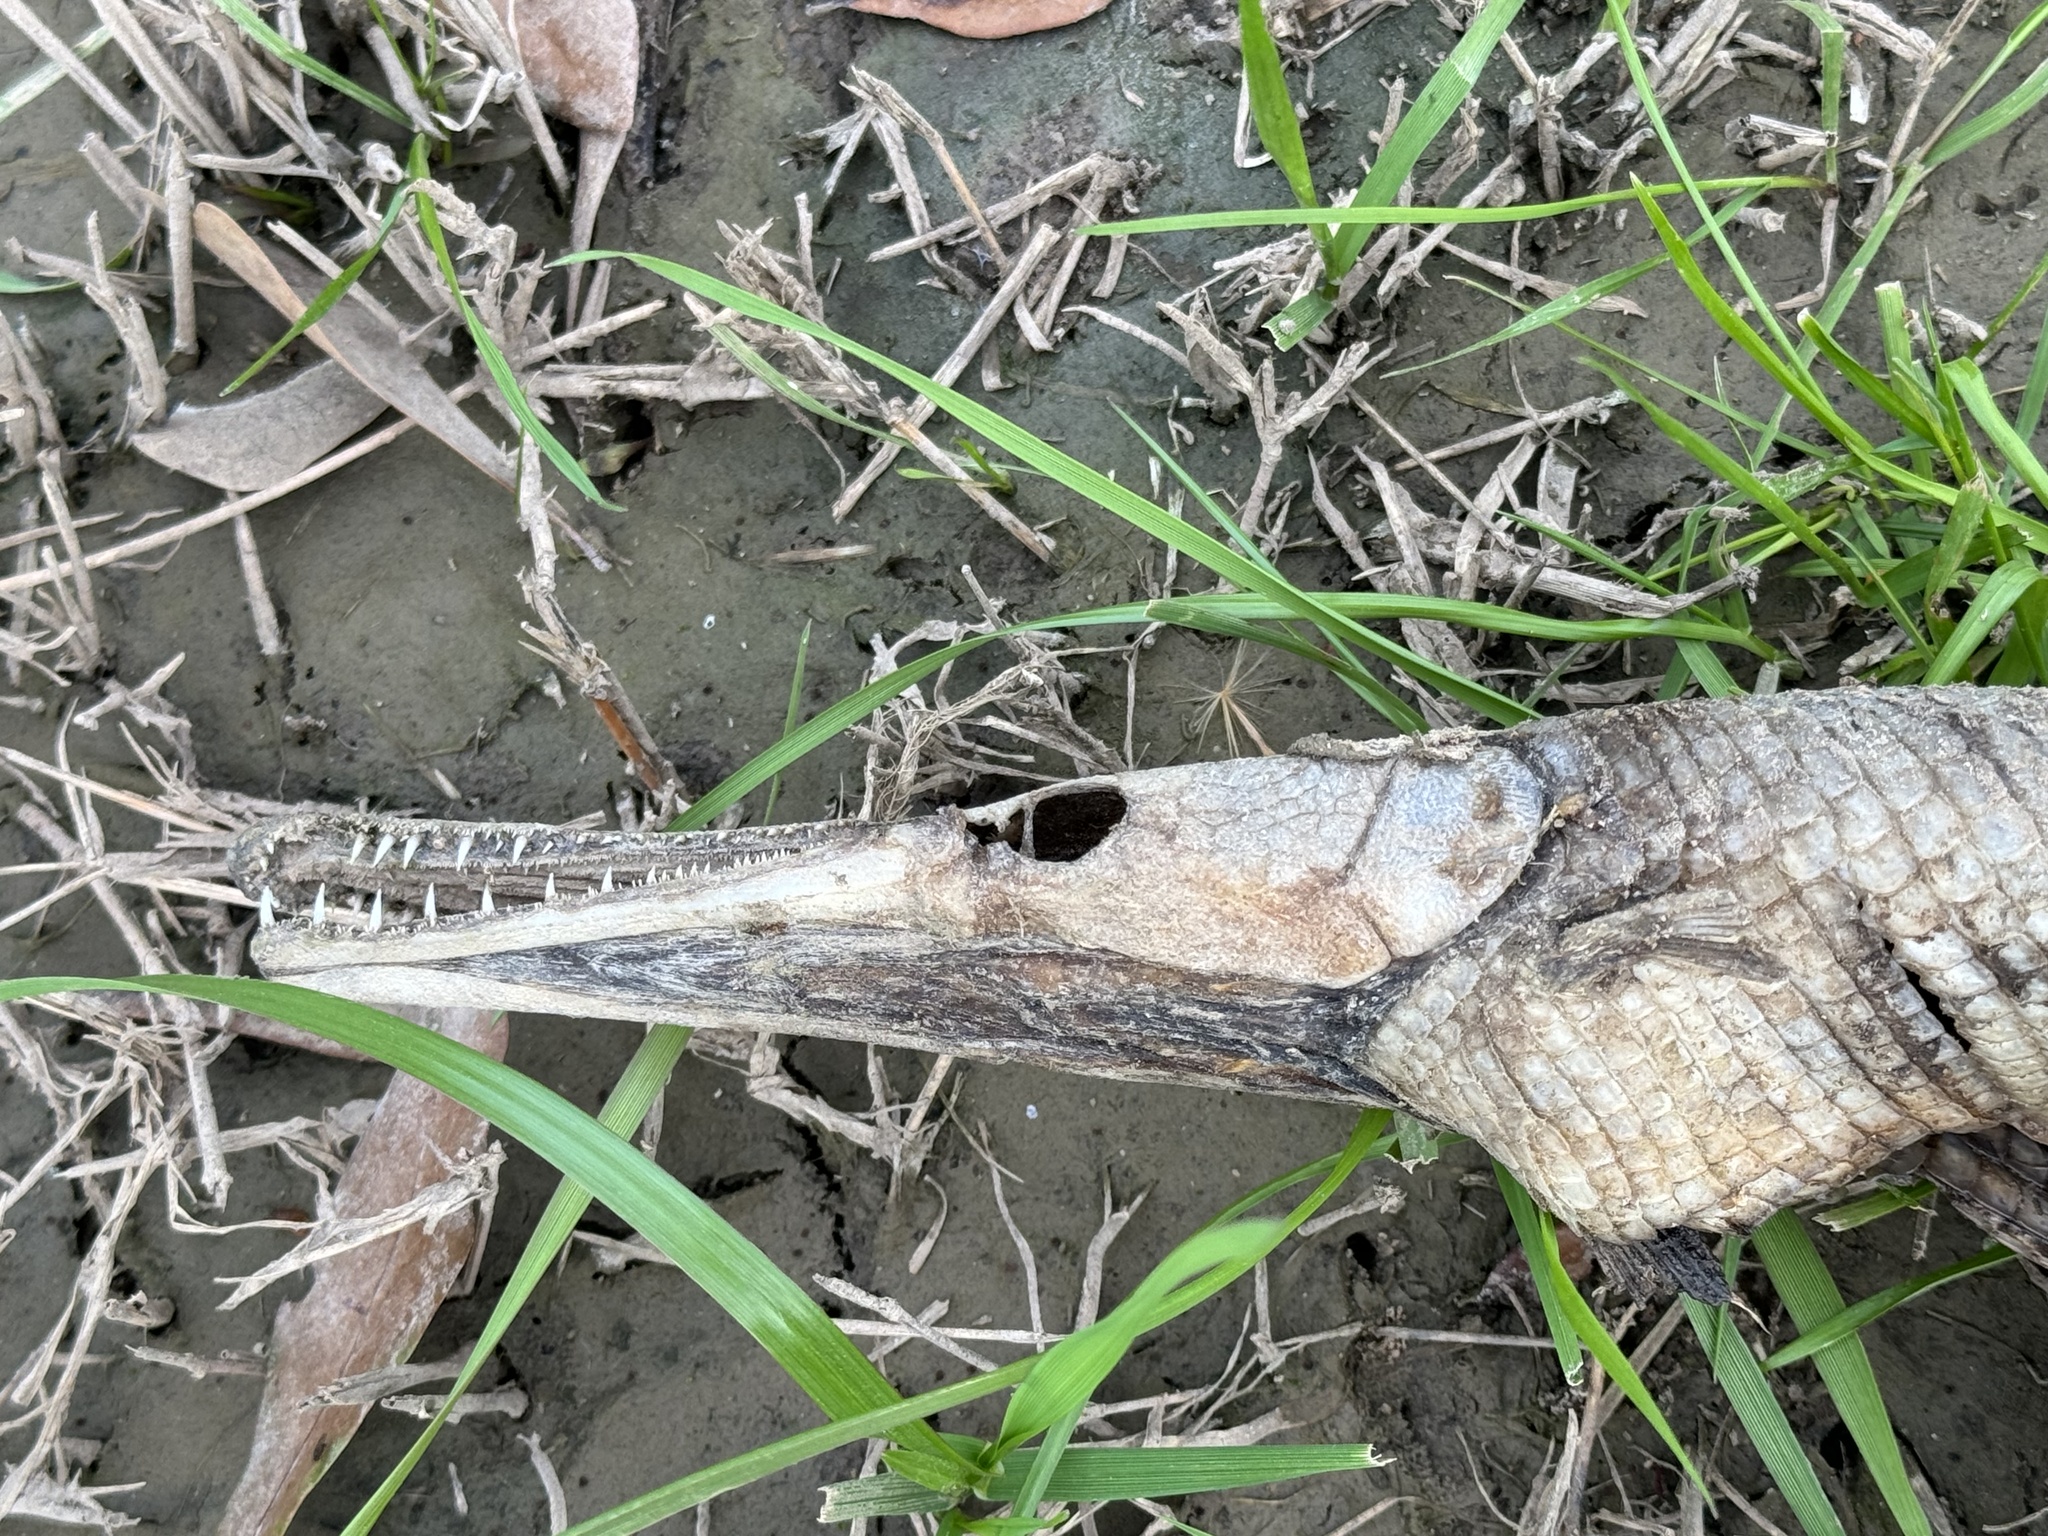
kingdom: Animalia
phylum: Chordata
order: Lepisosteiformes
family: Lepisosteidae
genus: Lepisosteus
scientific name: Lepisosteus oculatus
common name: Spotted gar
